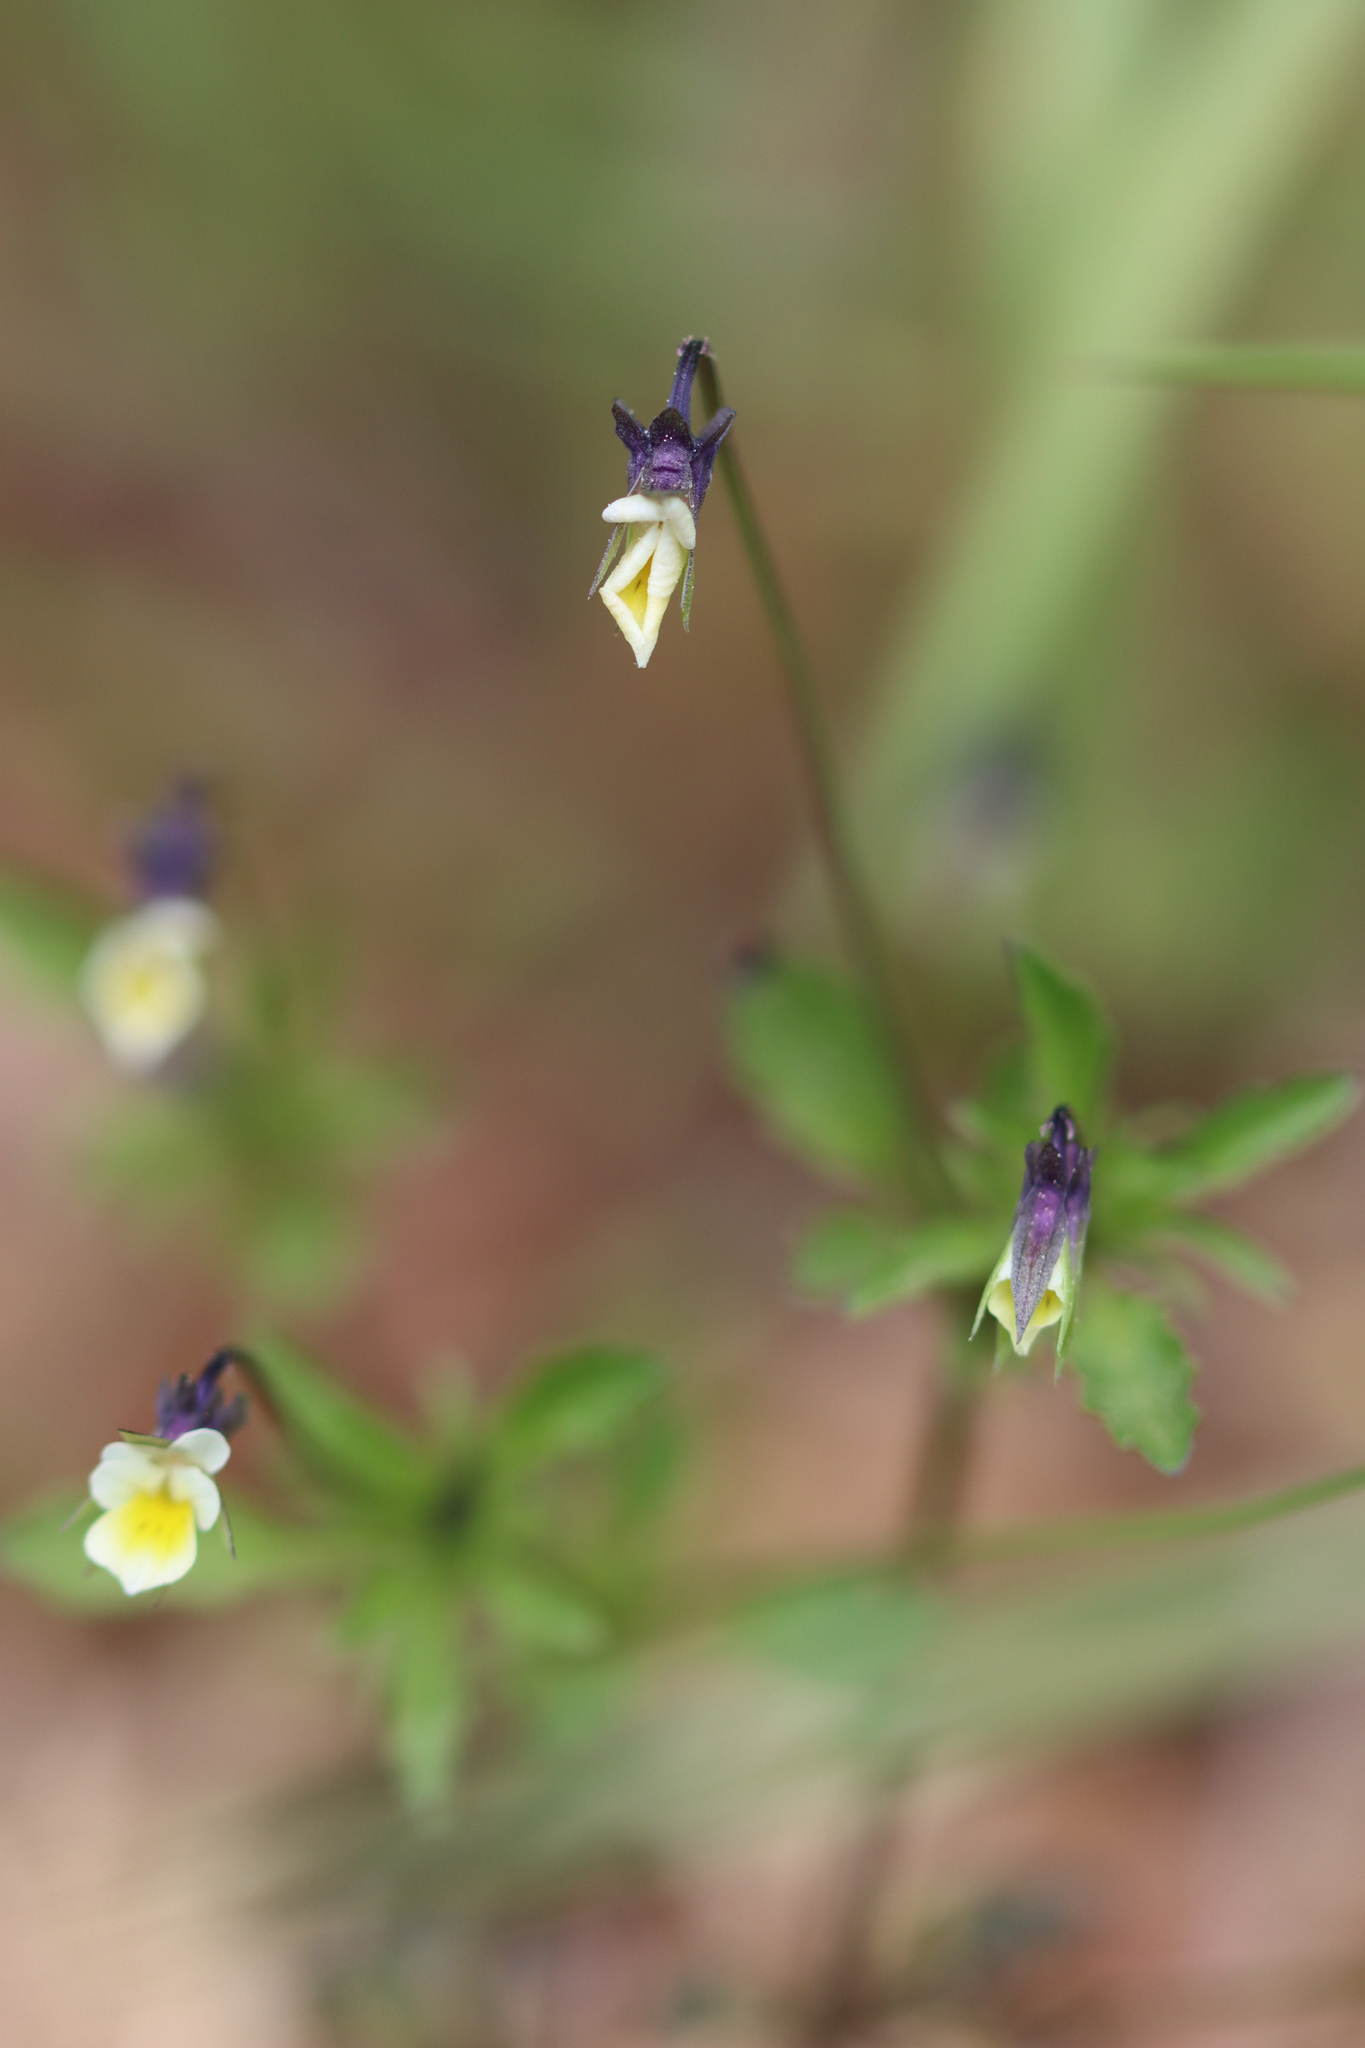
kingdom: Plantae
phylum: Tracheophyta
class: Magnoliopsida
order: Malpighiales
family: Violaceae
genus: Viola
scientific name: Viola arvensis
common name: Field pansy
